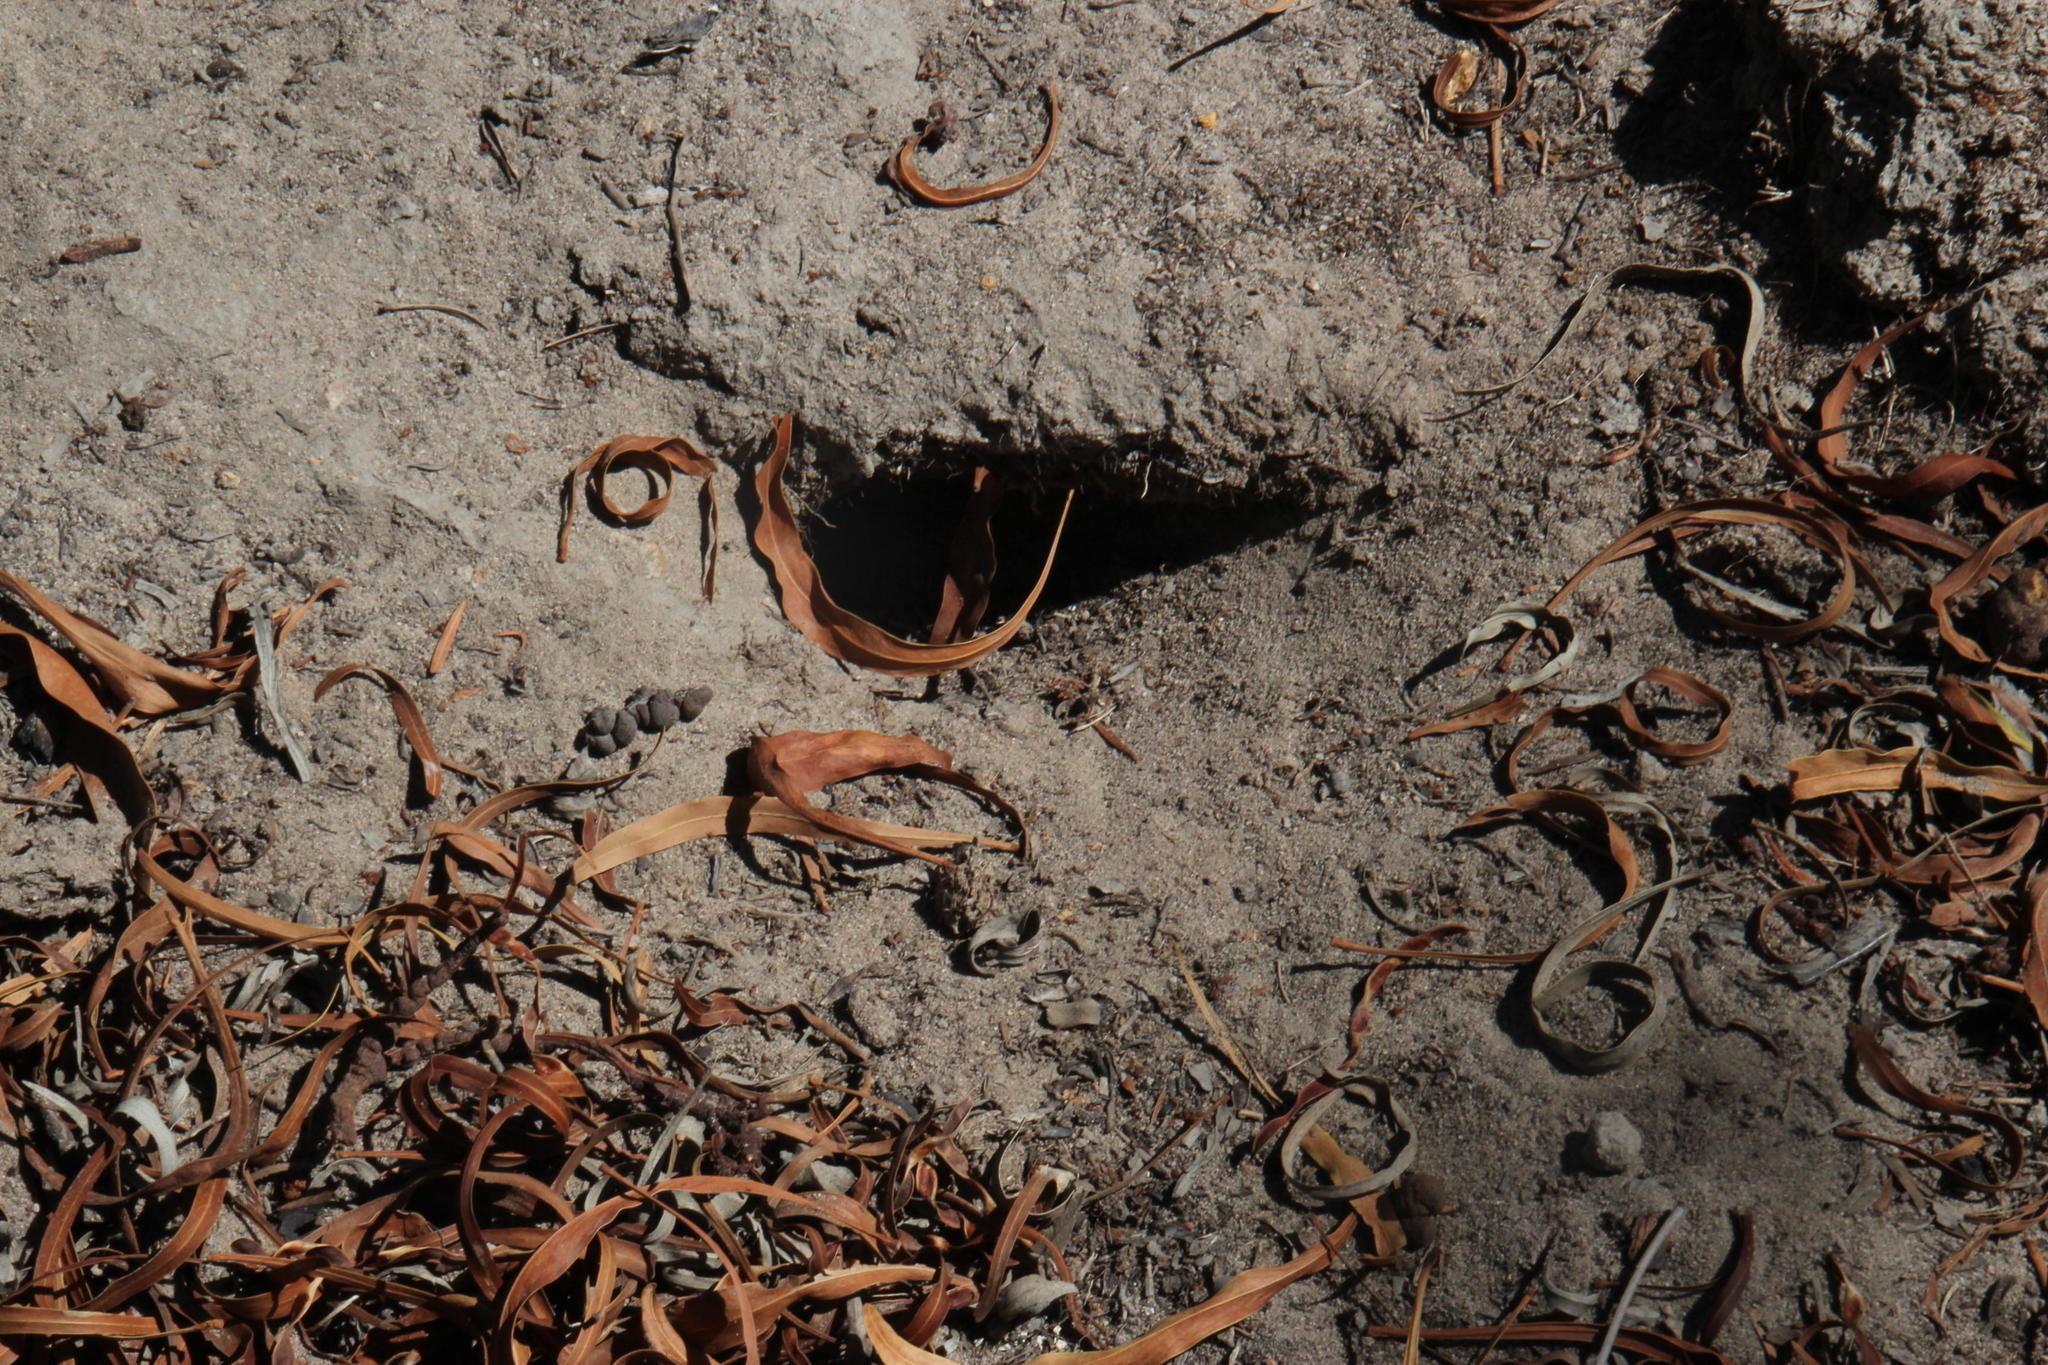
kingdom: Animalia
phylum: Chordata
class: Mammalia
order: Rodentia
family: Muridae
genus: Gerbilliscus
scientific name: Gerbilliscus afer
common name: Cape gerbil
